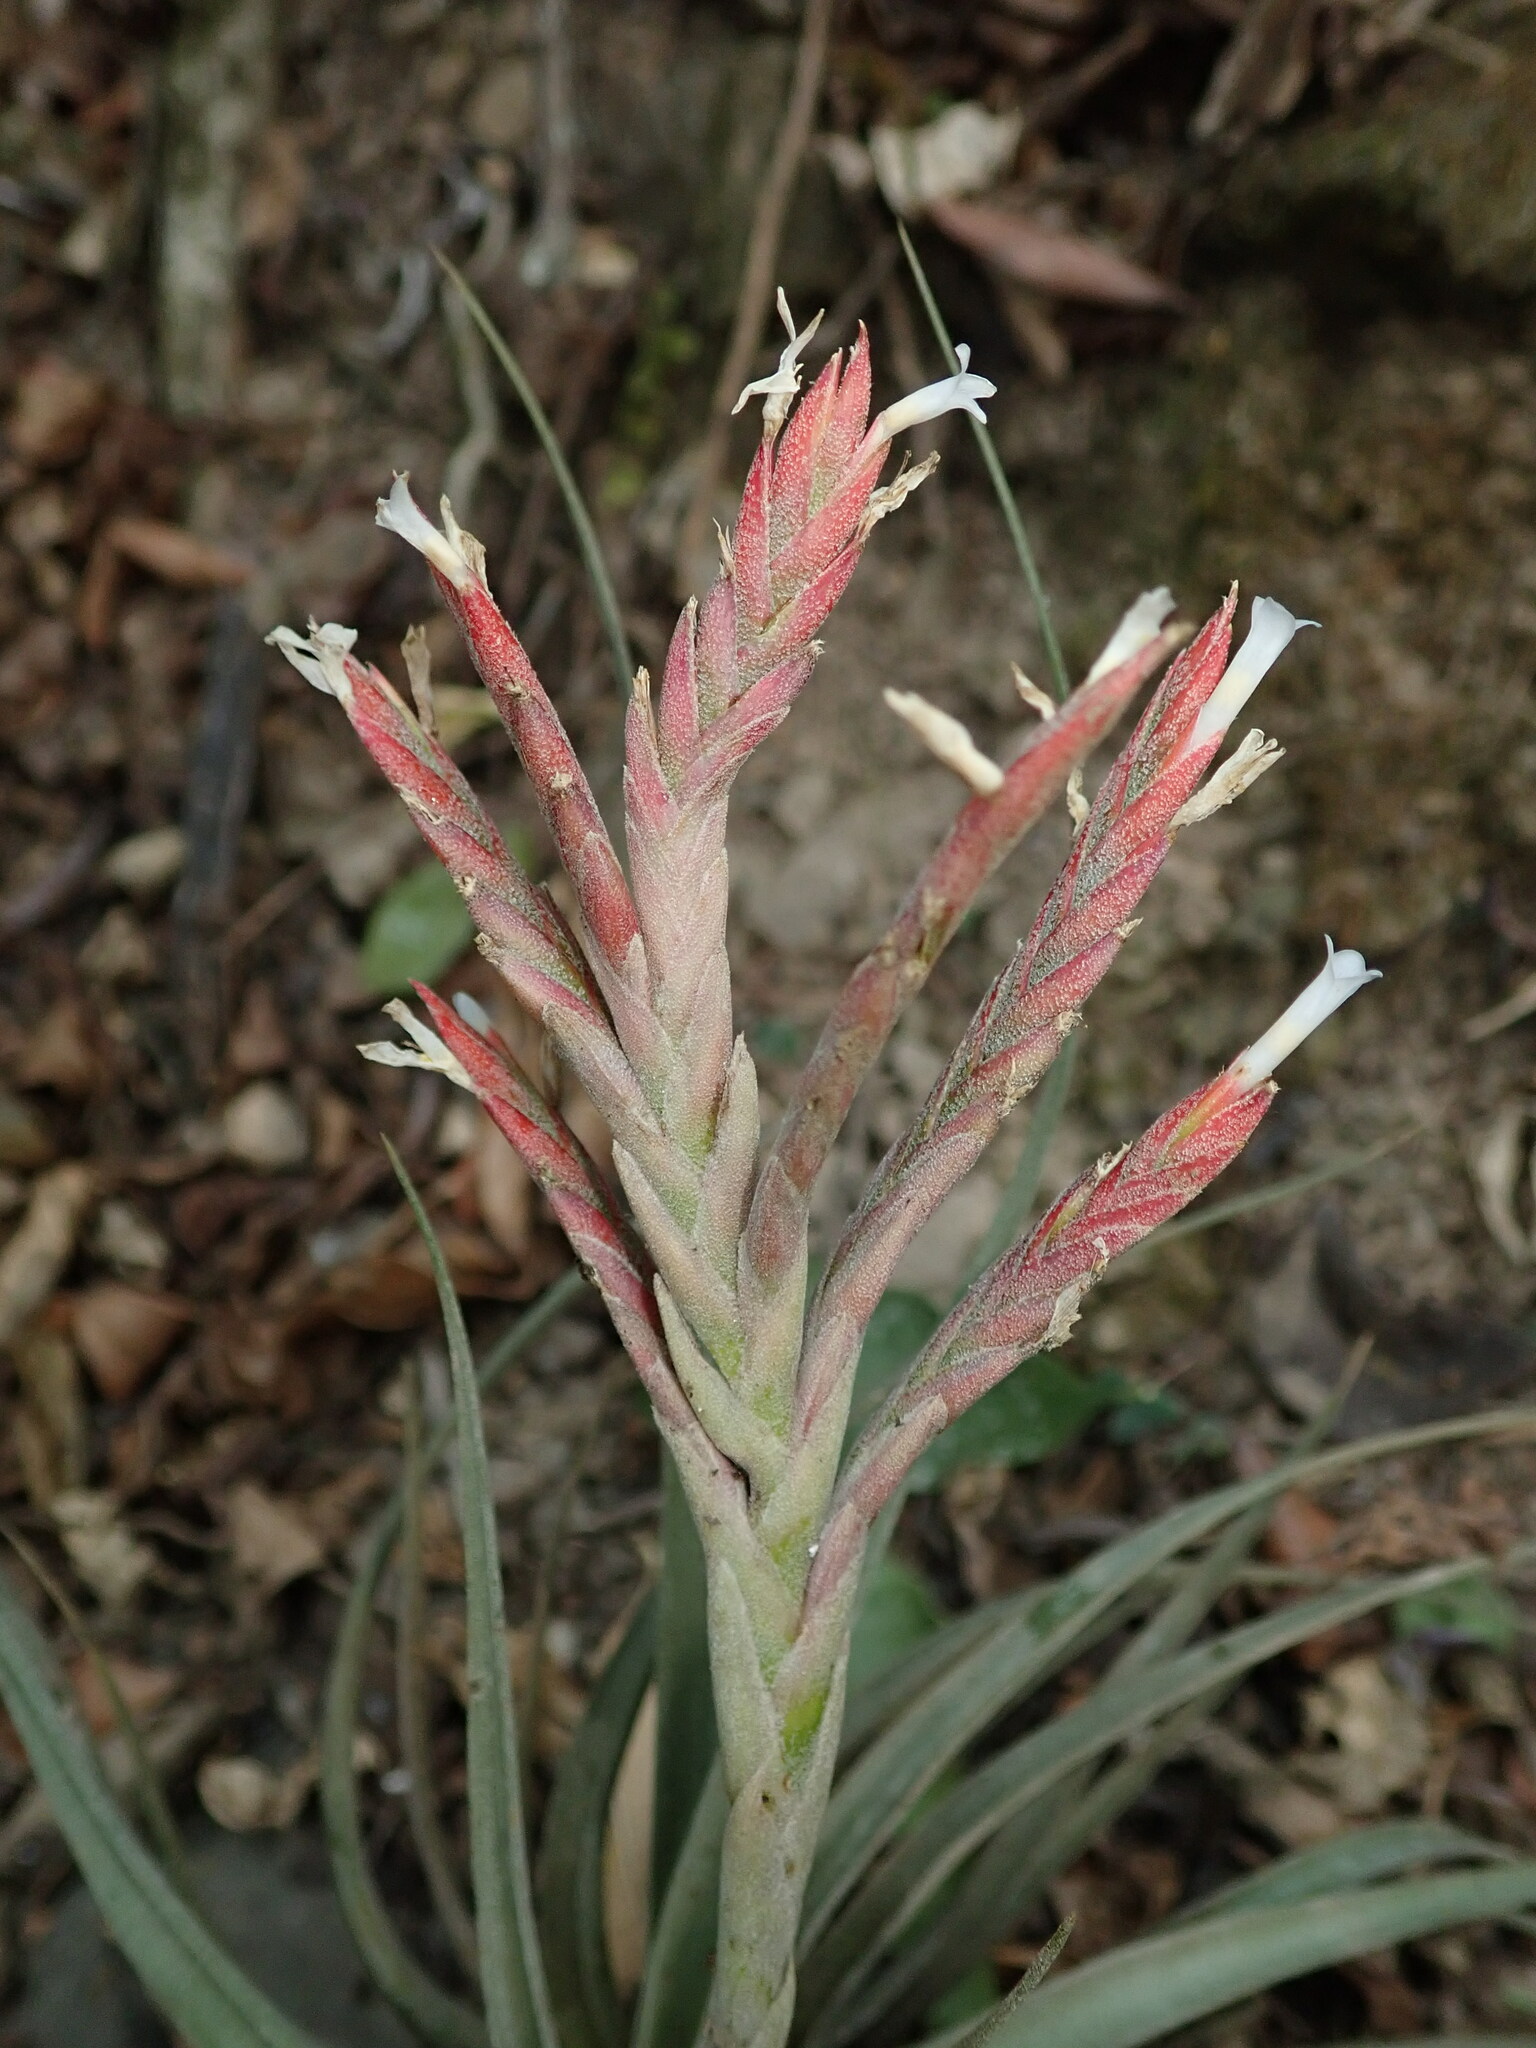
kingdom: Plantae
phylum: Tracheophyta
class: Liliopsida
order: Poales
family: Bromeliaceae
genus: Tillandsia
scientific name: Tillandsia didisticha
